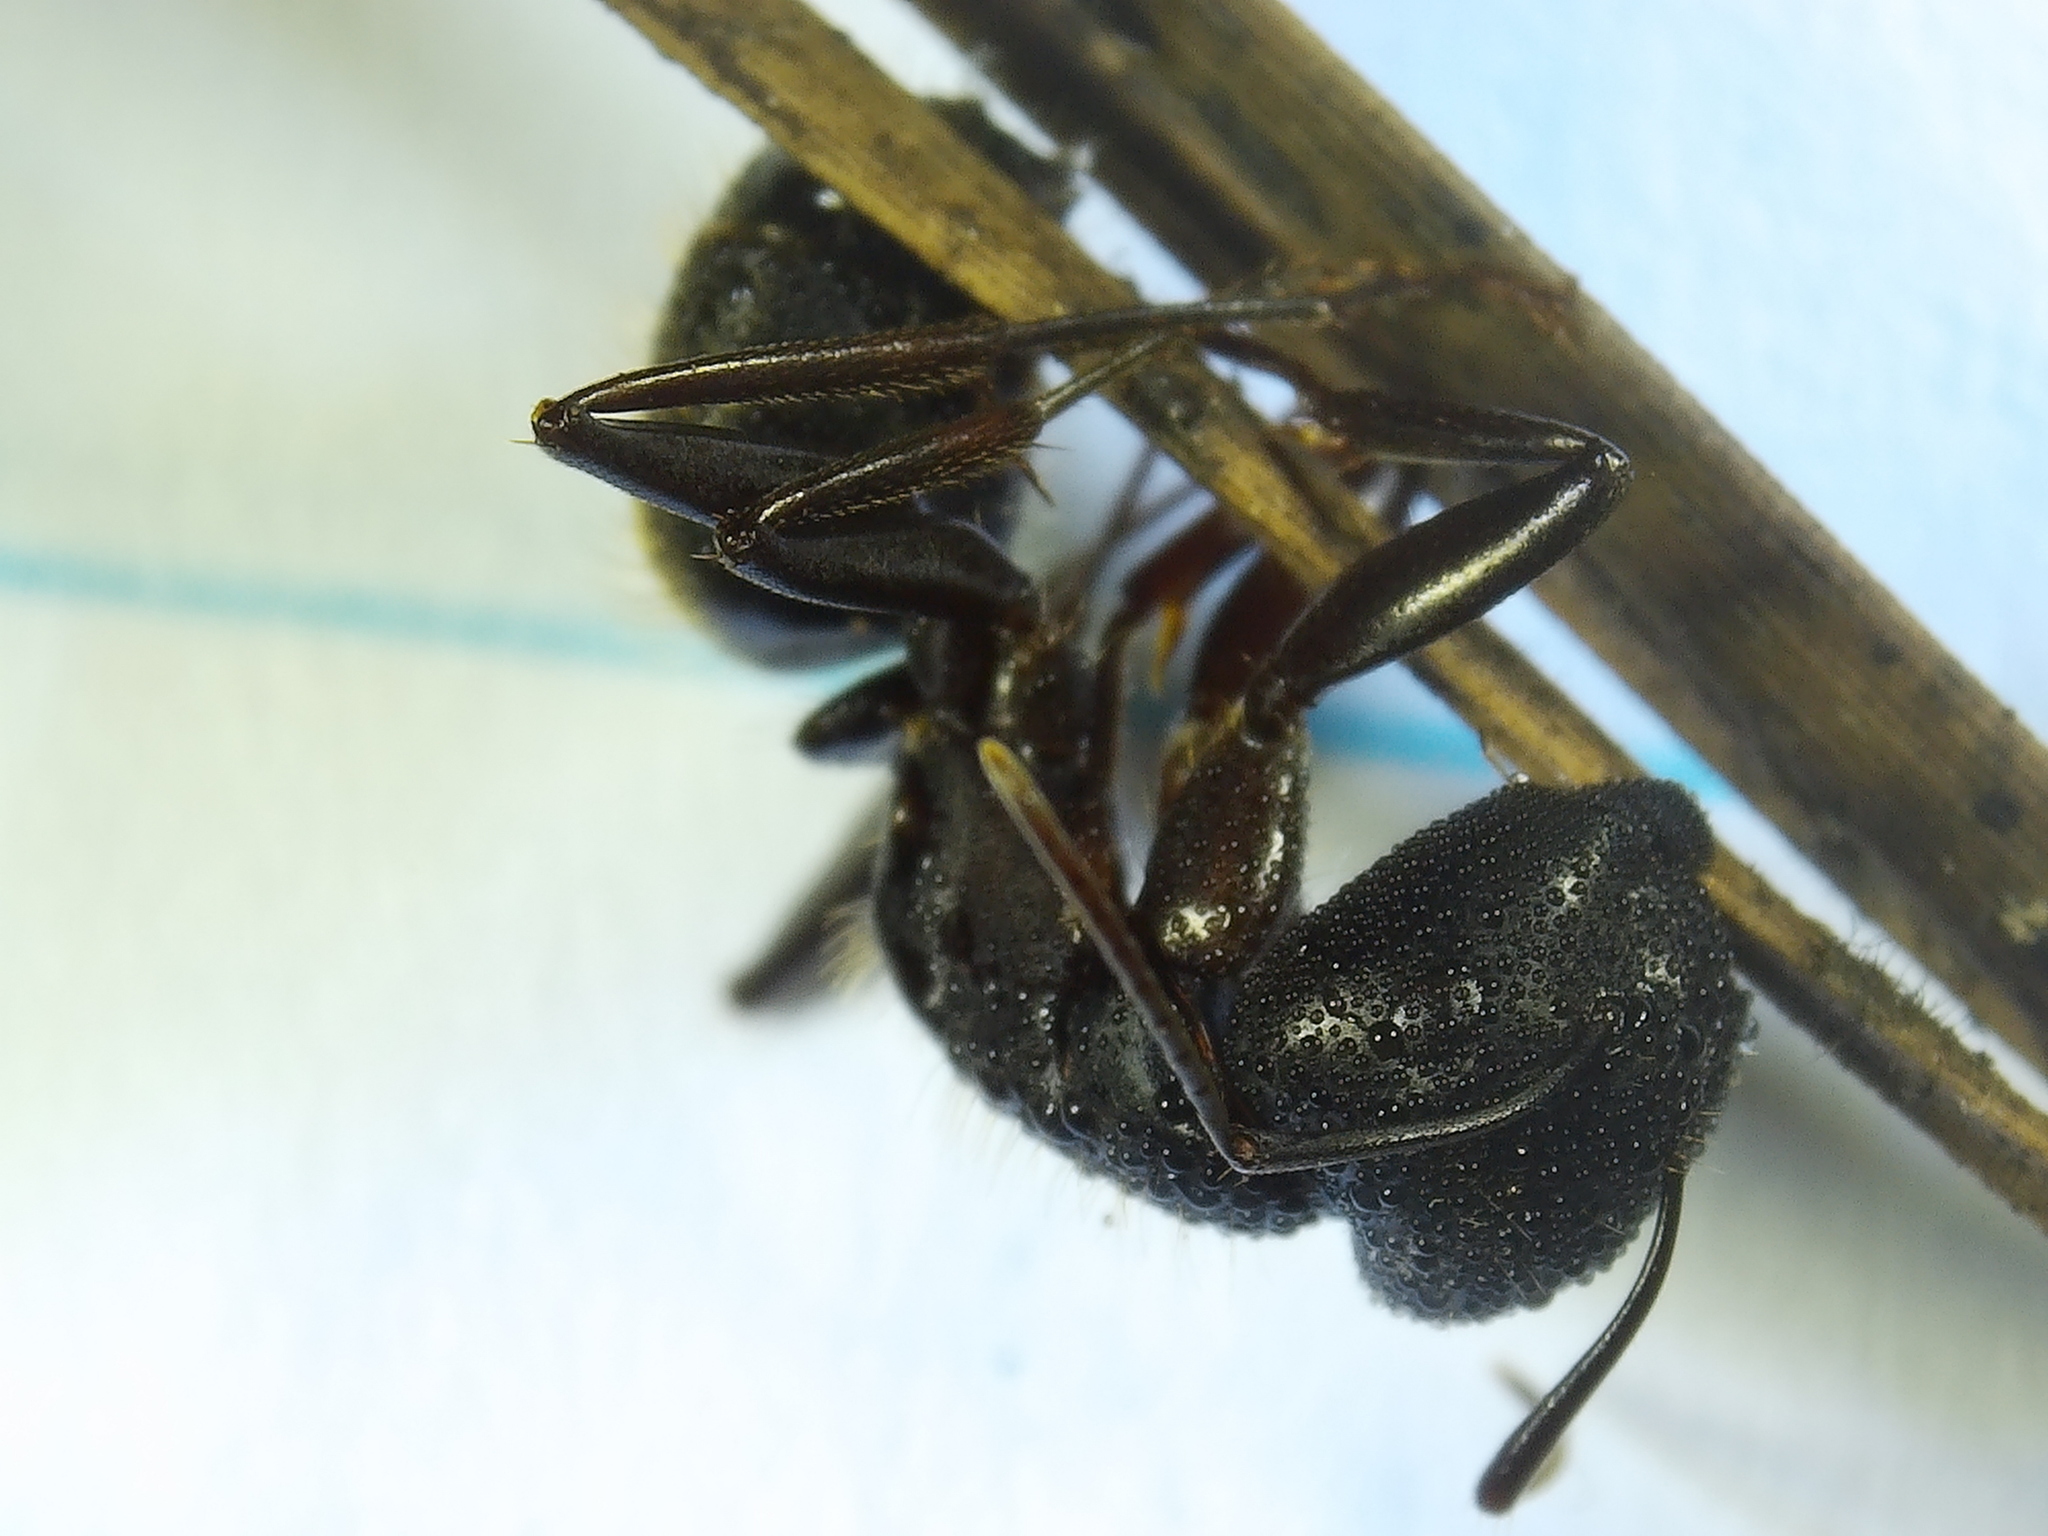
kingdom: Animalia
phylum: Arthropoda
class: Insecta
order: Hymenoptera
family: Formicidae
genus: Camponotus
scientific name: Camponotus pennsylvanicus
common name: Black carpenter ant
